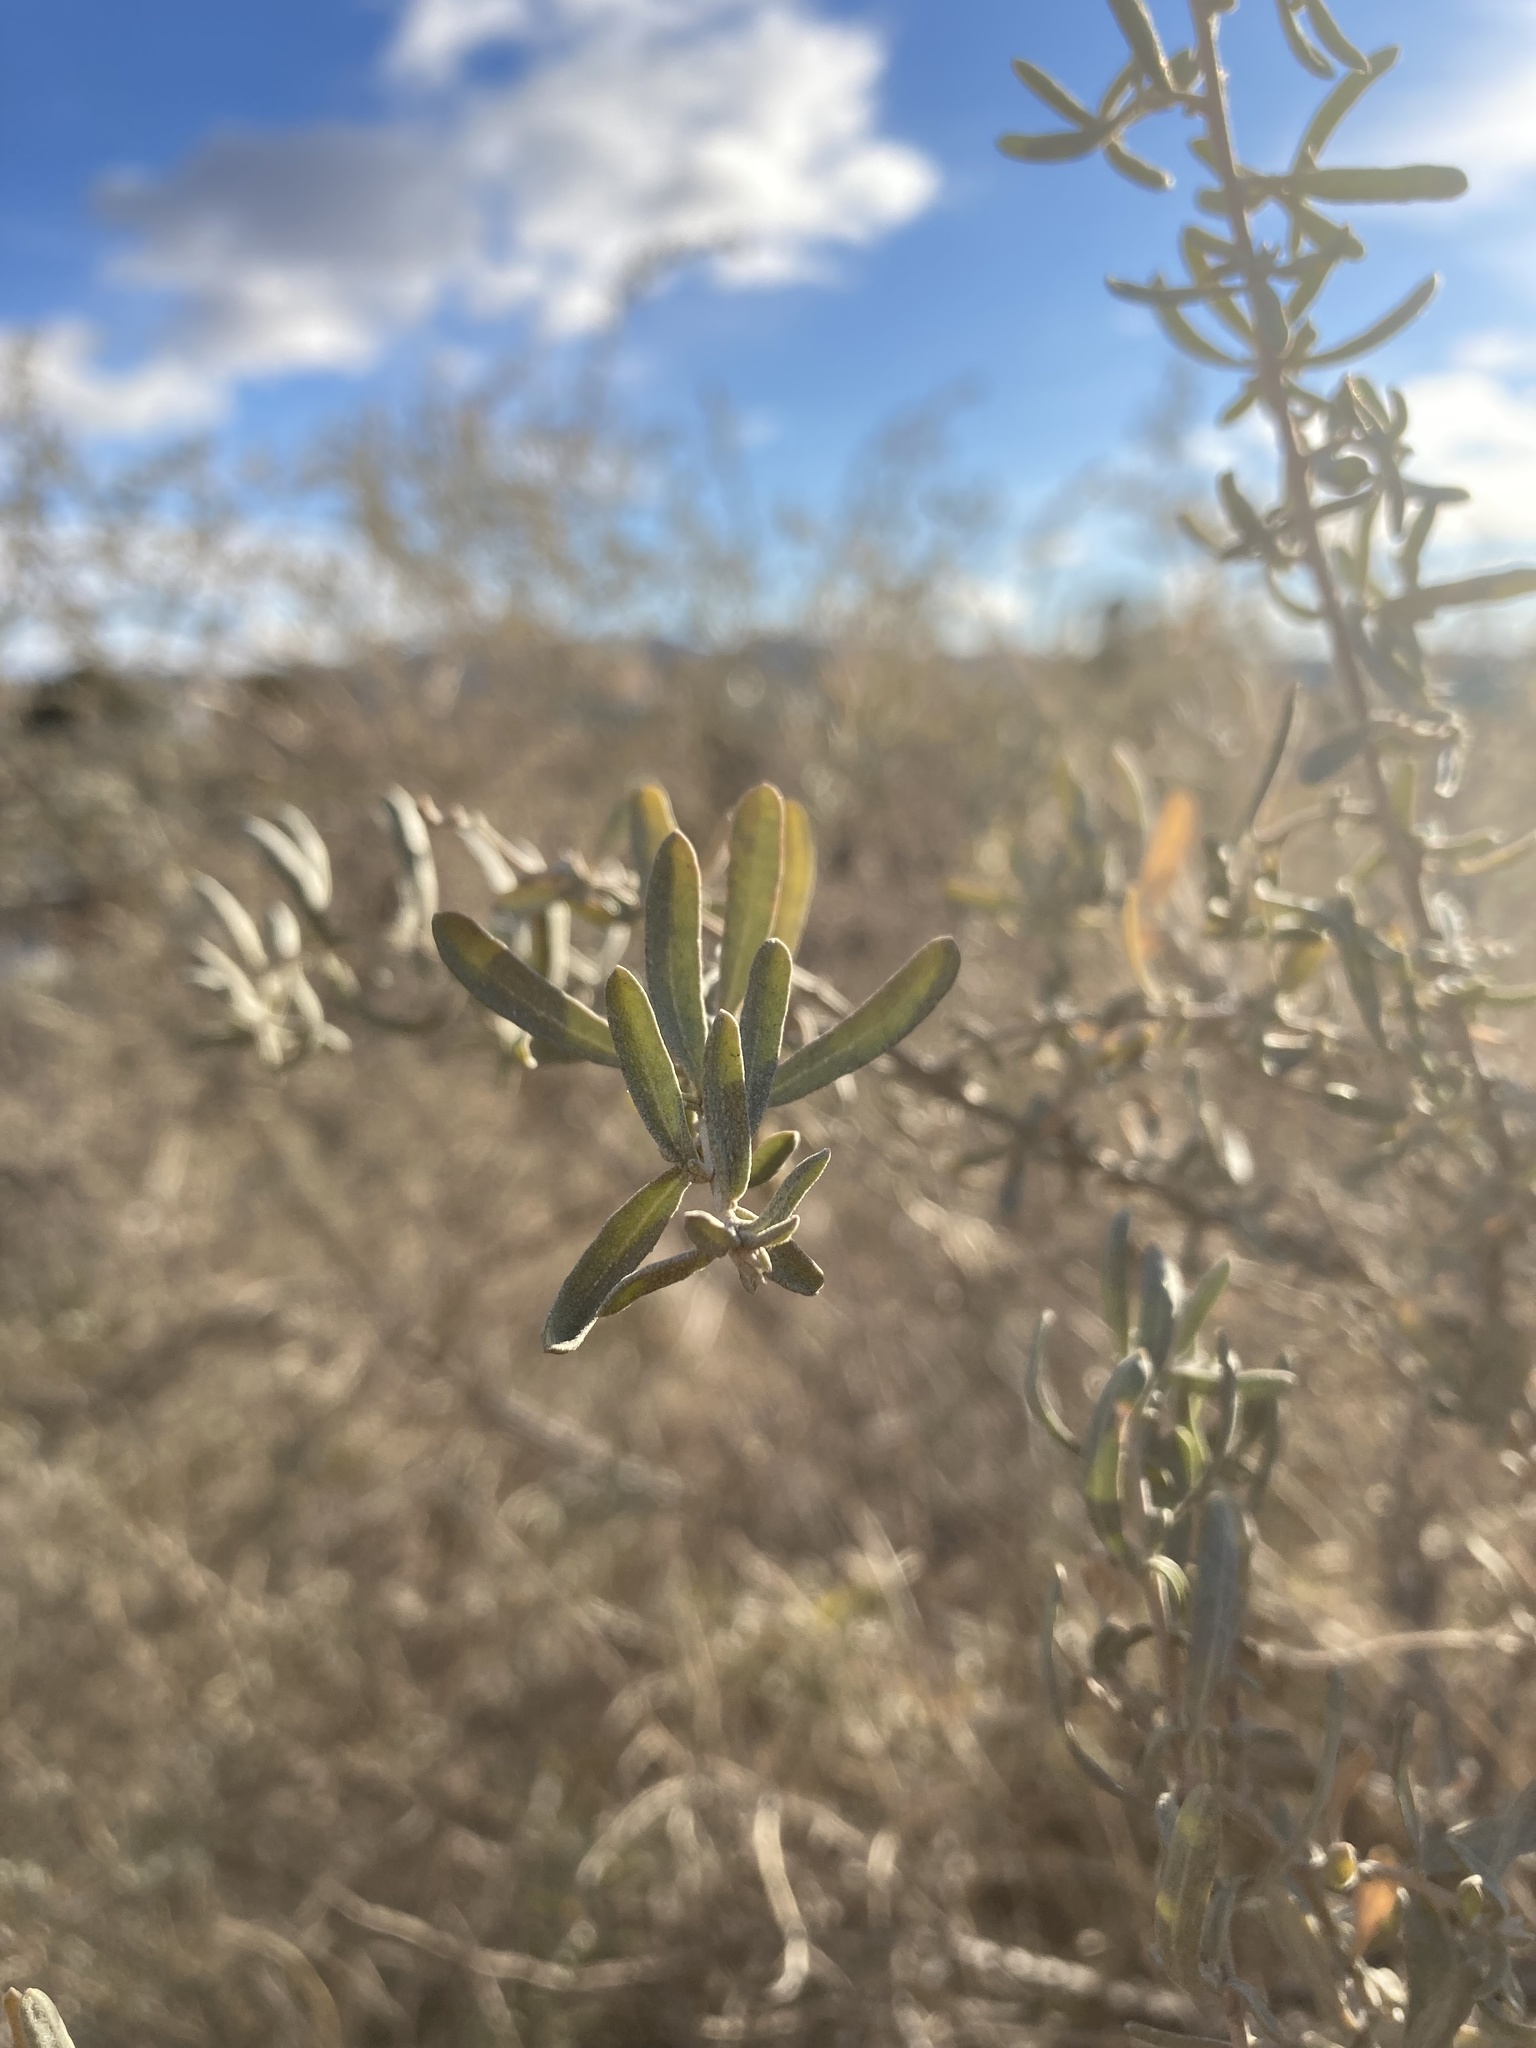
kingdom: Plantae
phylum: Tracheophyta
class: Magnoliopsida
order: Caryophyllales
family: Amaranthaceae
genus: Atriplex
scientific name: Atriplex canescens
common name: Four-wing saltbush
